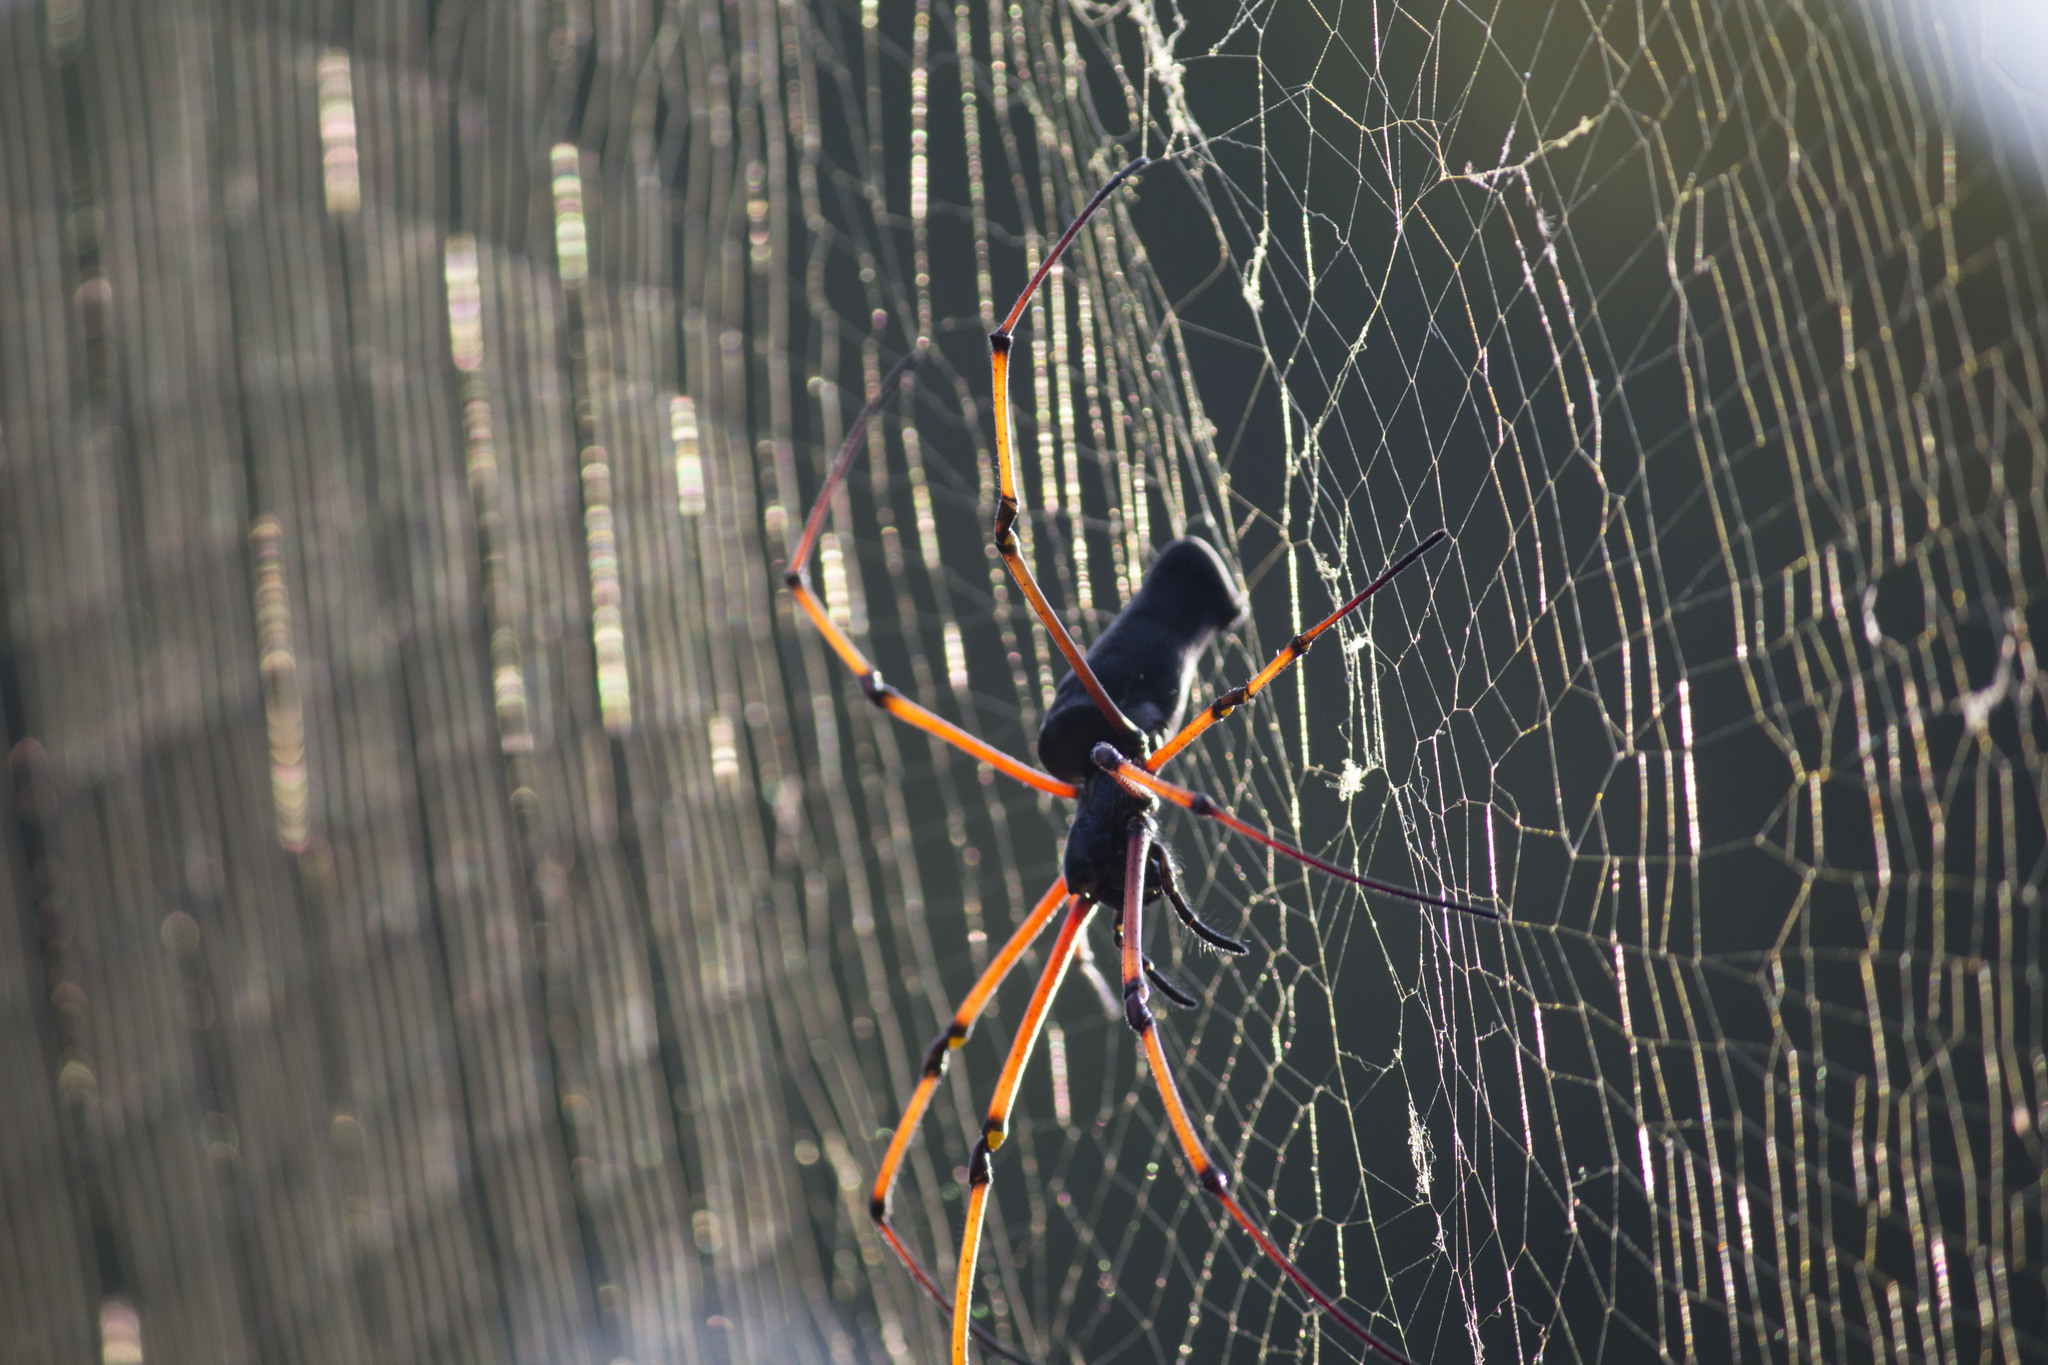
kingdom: Animalia
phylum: Arthropoda
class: Arachnida
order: Araneae
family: Araneidae
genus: Nephila
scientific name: Nephila kuhli
